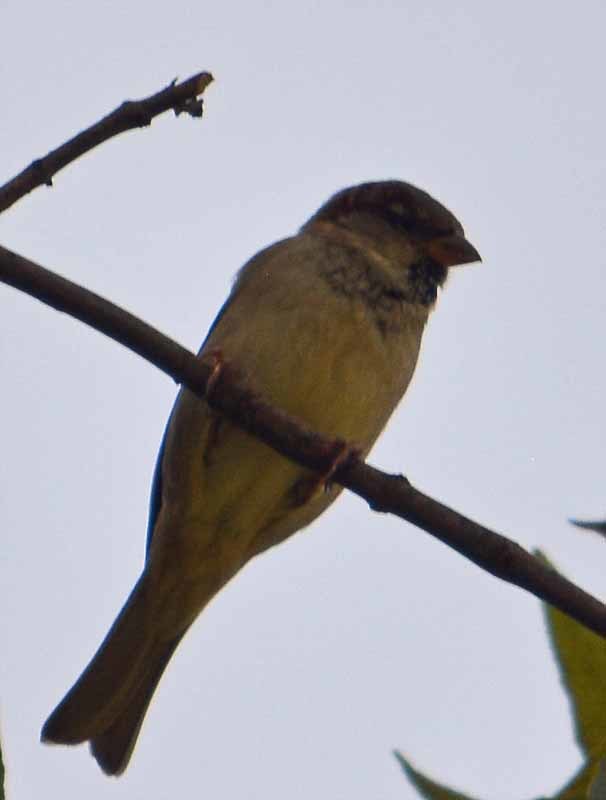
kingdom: Animalia
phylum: Chordata
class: Aves
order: Passeriformes
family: Passeridae
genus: Passer
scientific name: Passer domesticus
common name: House sparrow
